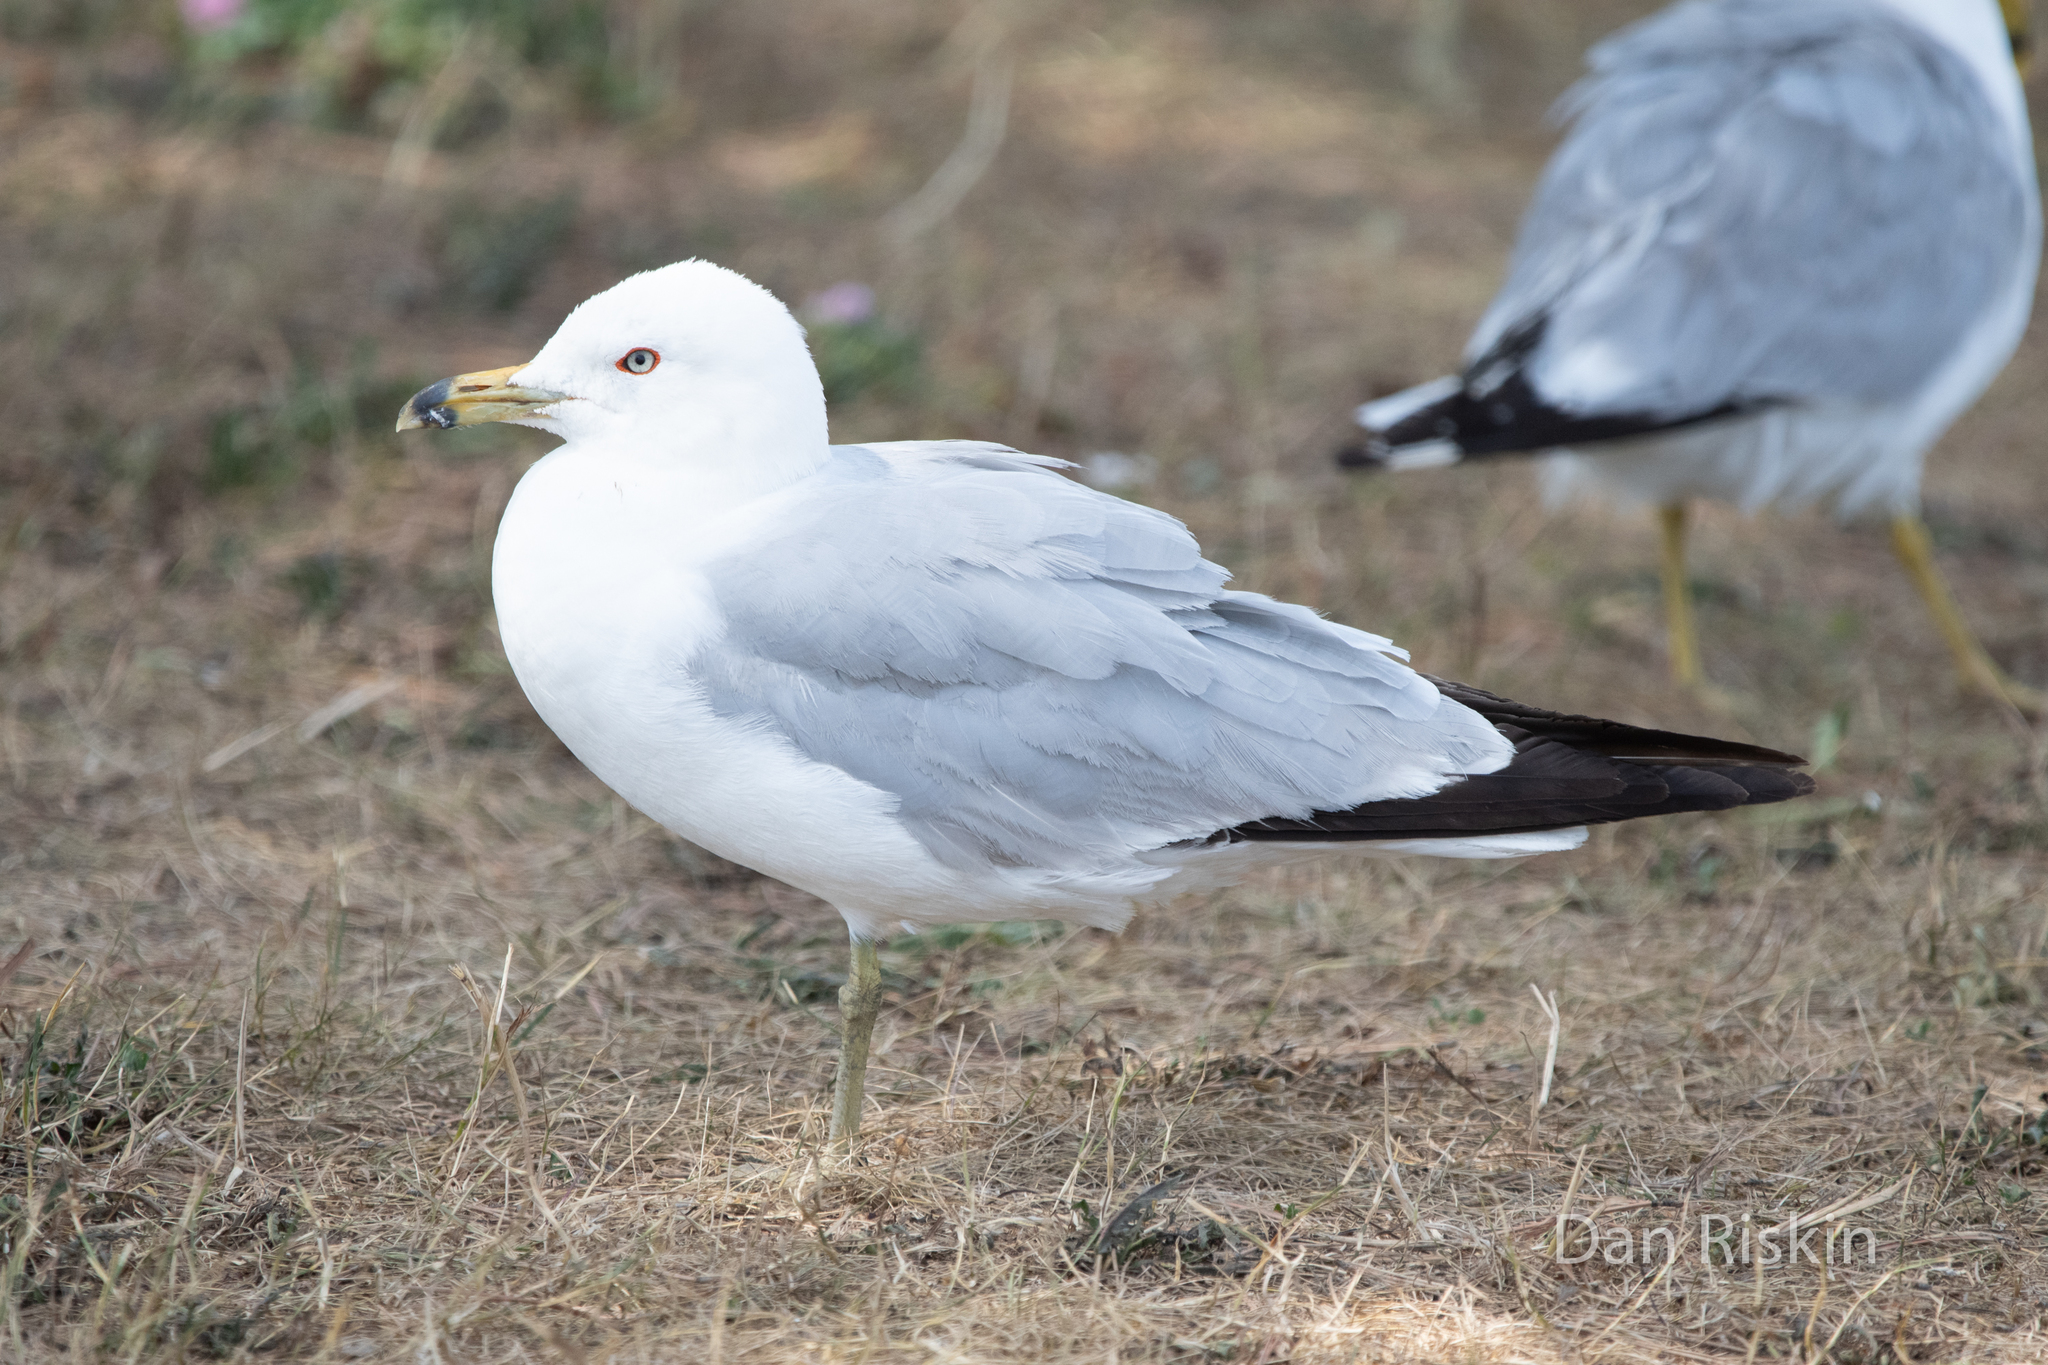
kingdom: Animalia
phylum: Chordata
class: Aves
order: Charadriiformes
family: Laridae
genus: Larus
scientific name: Larus delawarensis
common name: Ring-billed gull
